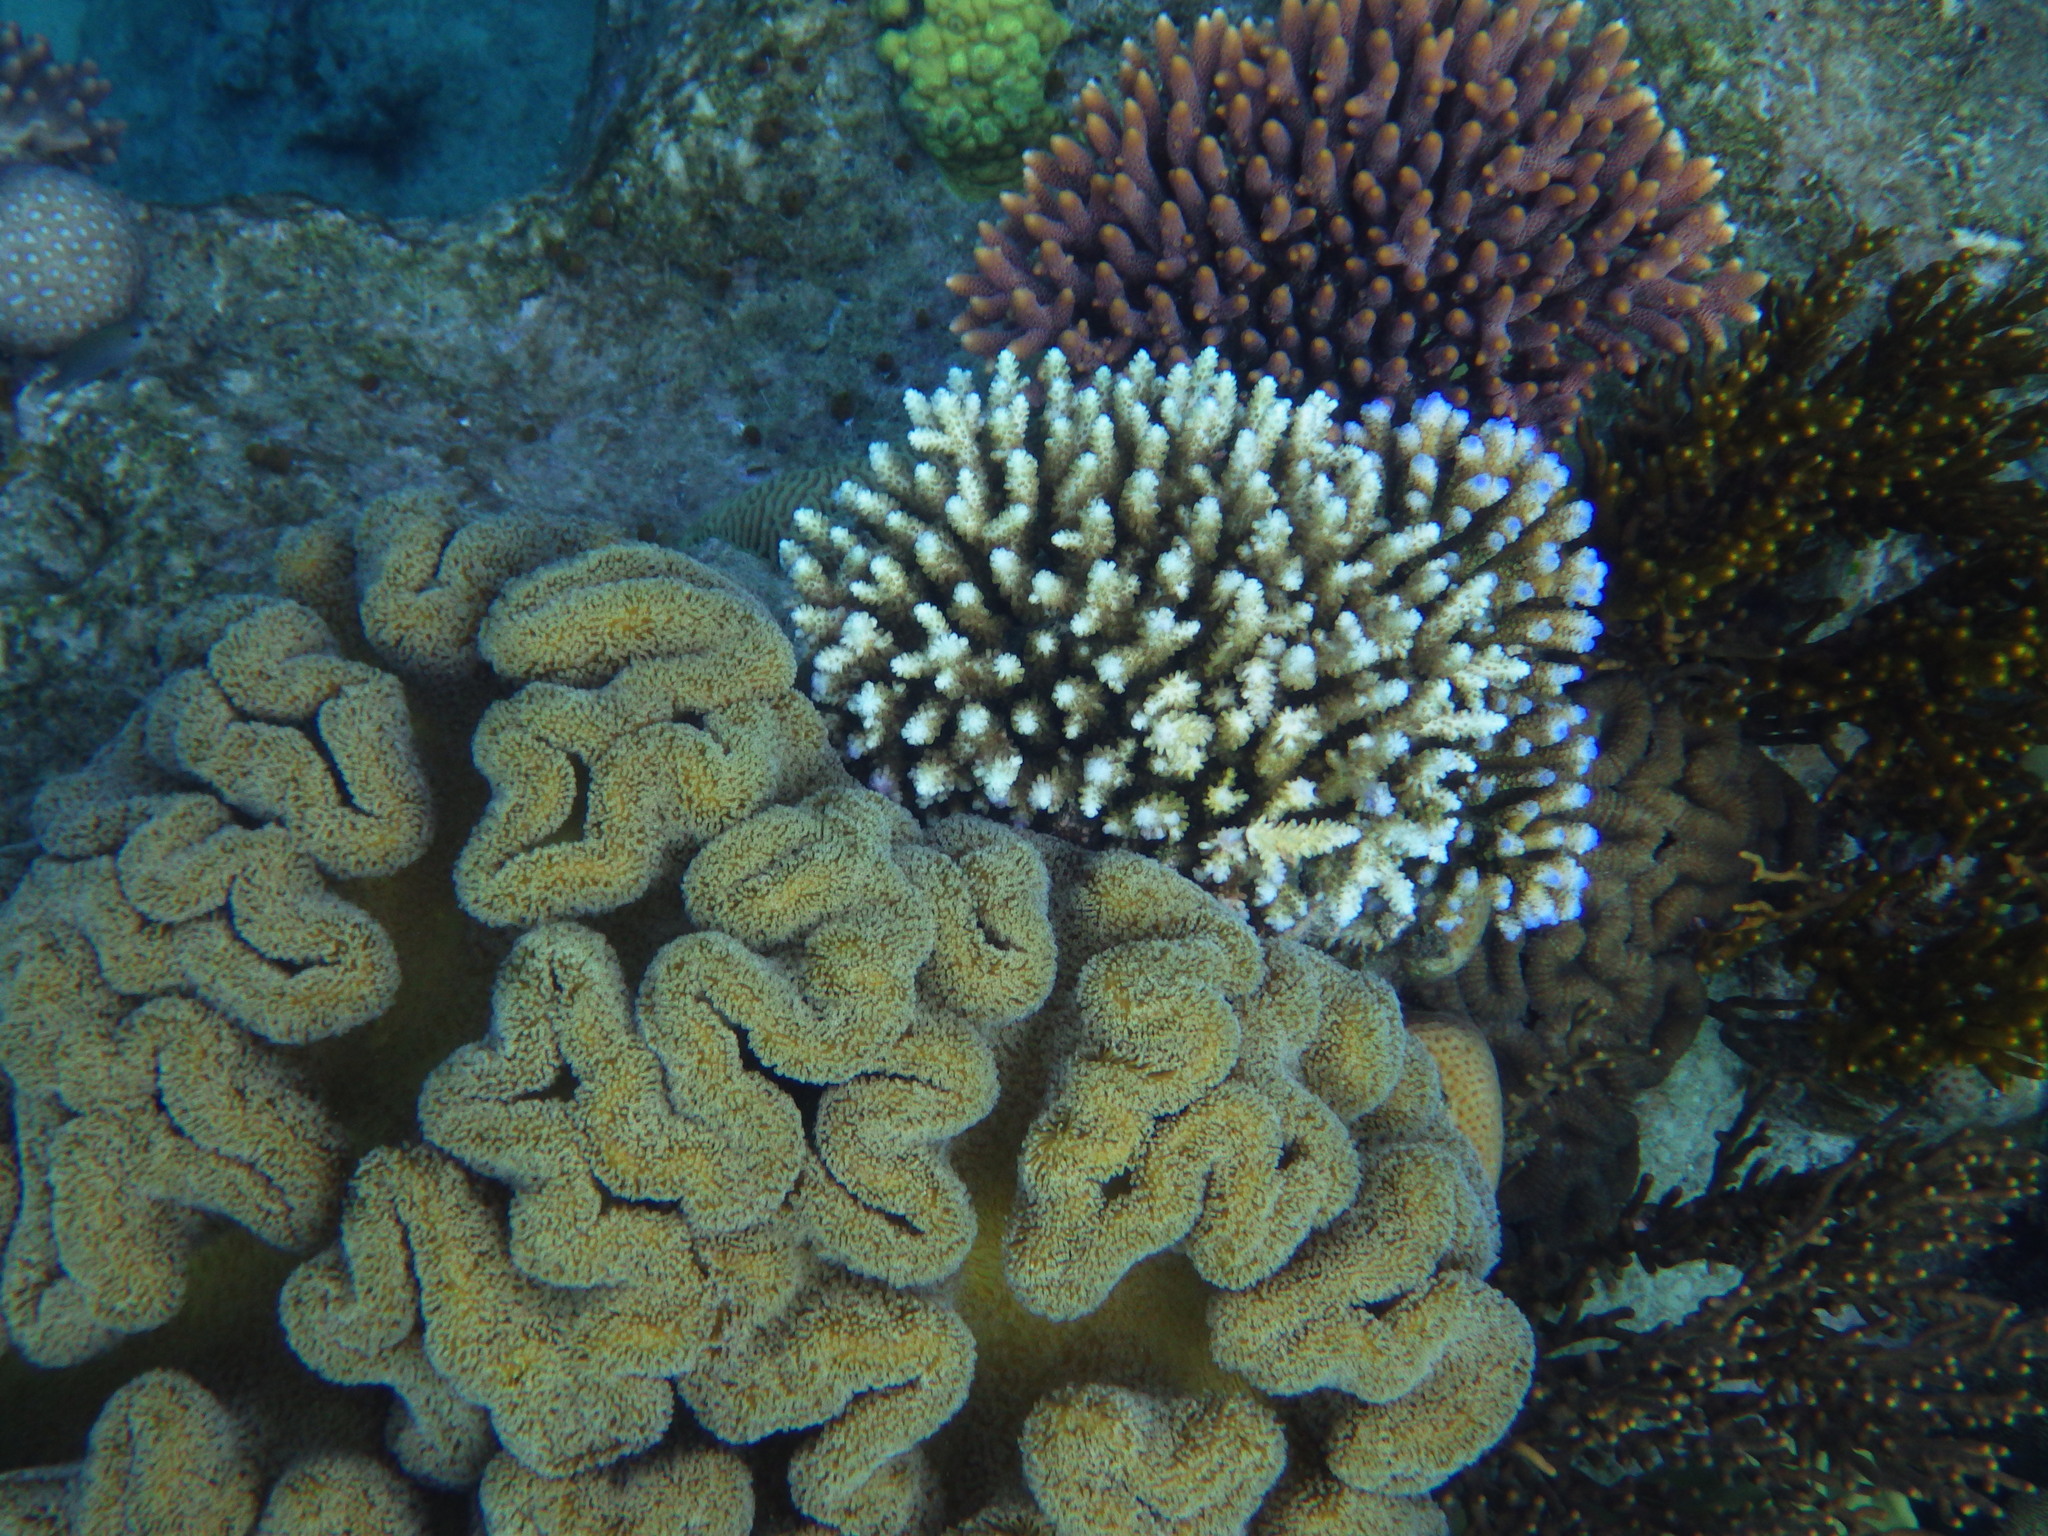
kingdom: Animalia
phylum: Cnidaria
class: Anthozoa
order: Scleractinia
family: Acroporidae
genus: Acropora
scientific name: Acropora millepora
